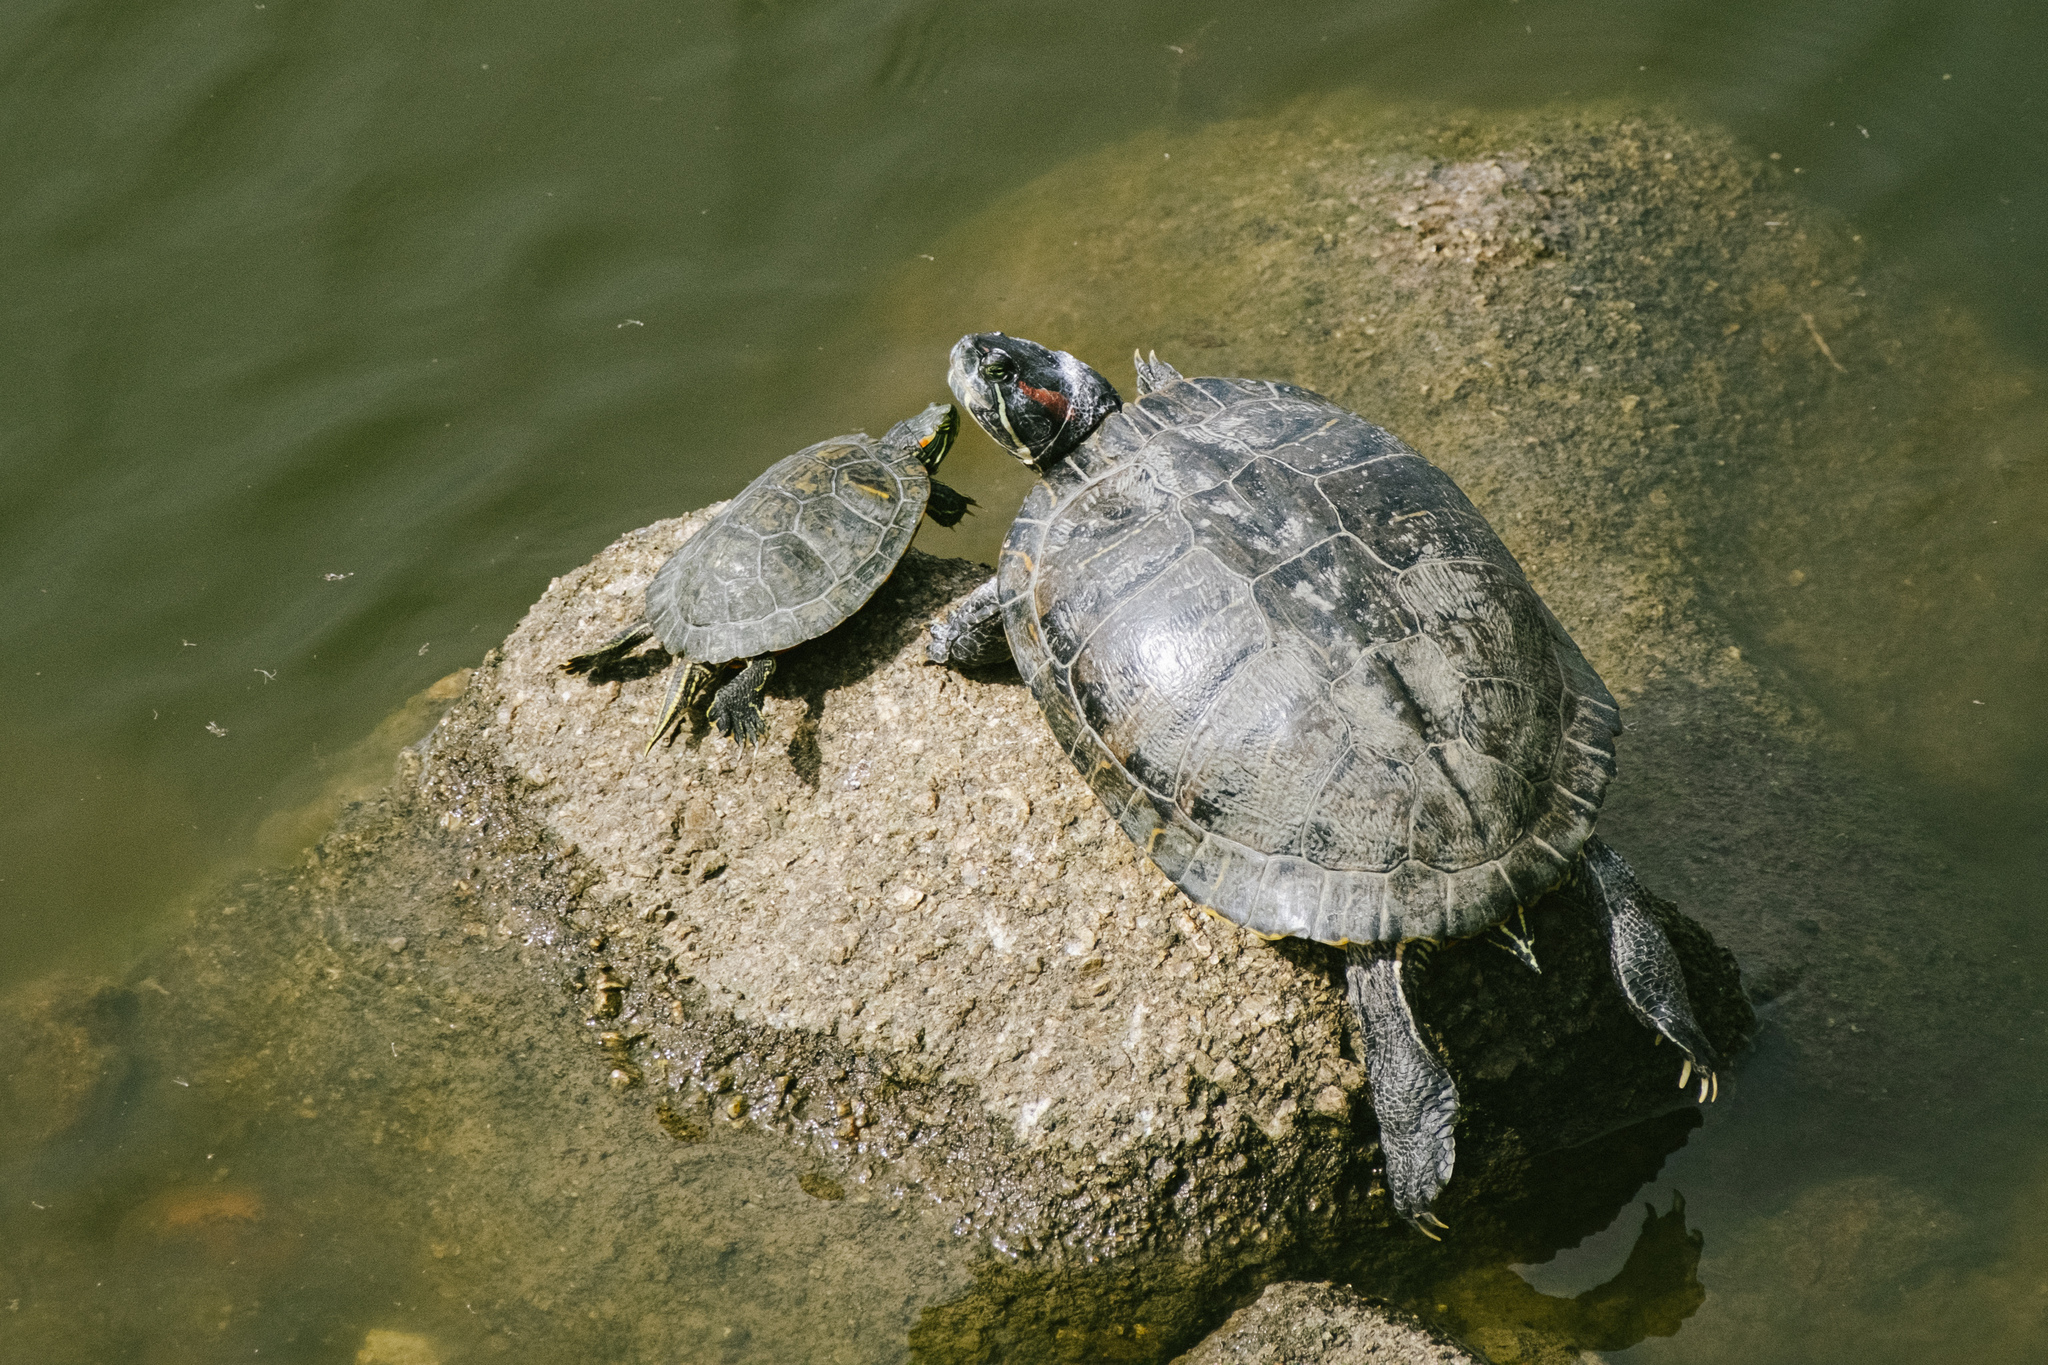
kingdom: Animalia
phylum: Chordata
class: Testudines
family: Emydidae
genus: Trachemys
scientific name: Trachemys scripta
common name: Slider
